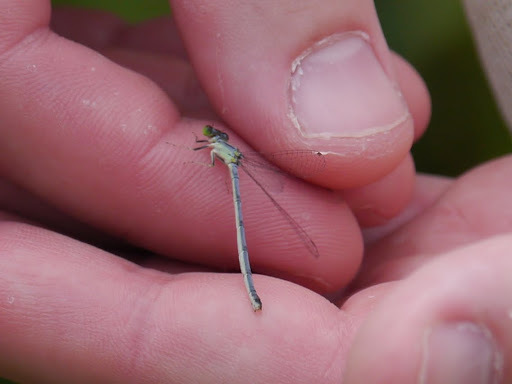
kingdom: Animalia
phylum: Arthropoda
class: Insecta
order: Odonata
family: Coenagrionidae
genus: Ischnura
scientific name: Ischnura verticalis
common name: Eastern forktail
